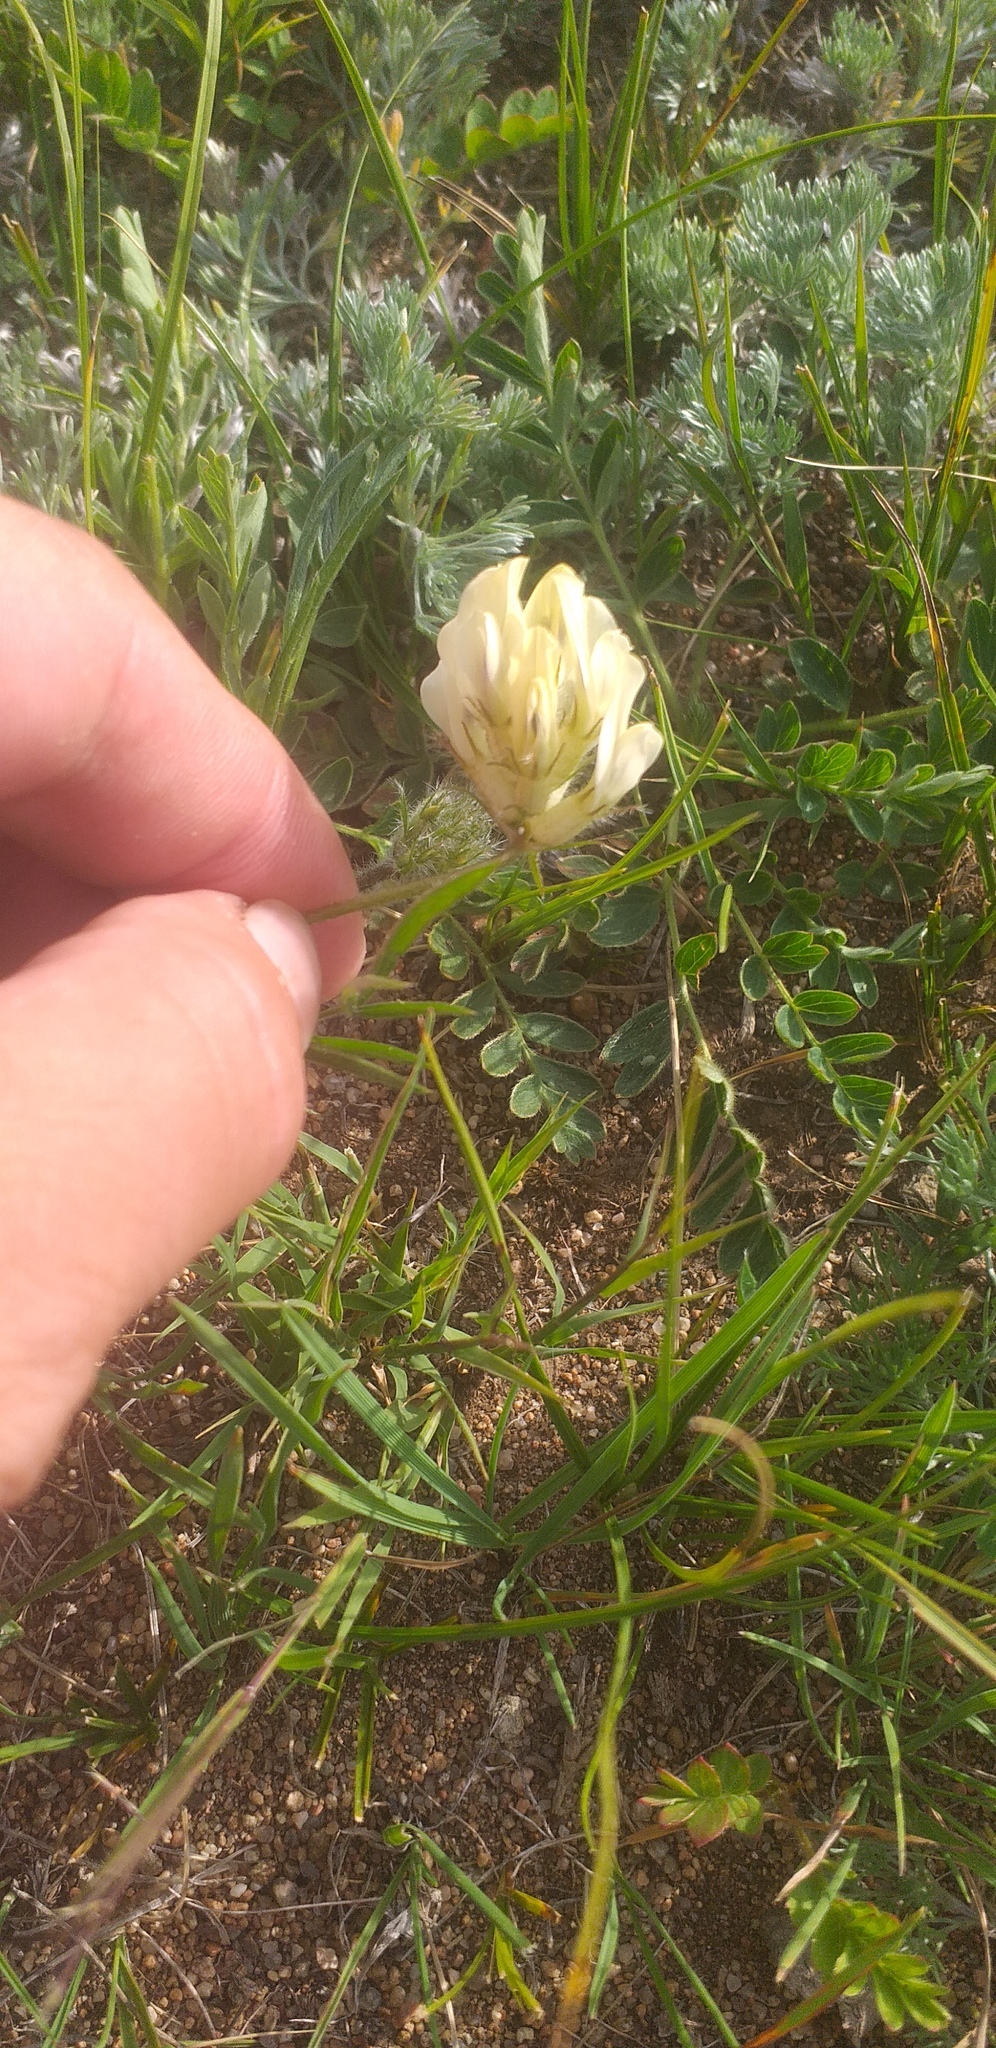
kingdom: Plantae
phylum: Tracheophyta
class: Magnoliopsida
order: Fabales
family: Fabaceae
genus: Oxytropis
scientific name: Oxytropis oxyphylla
